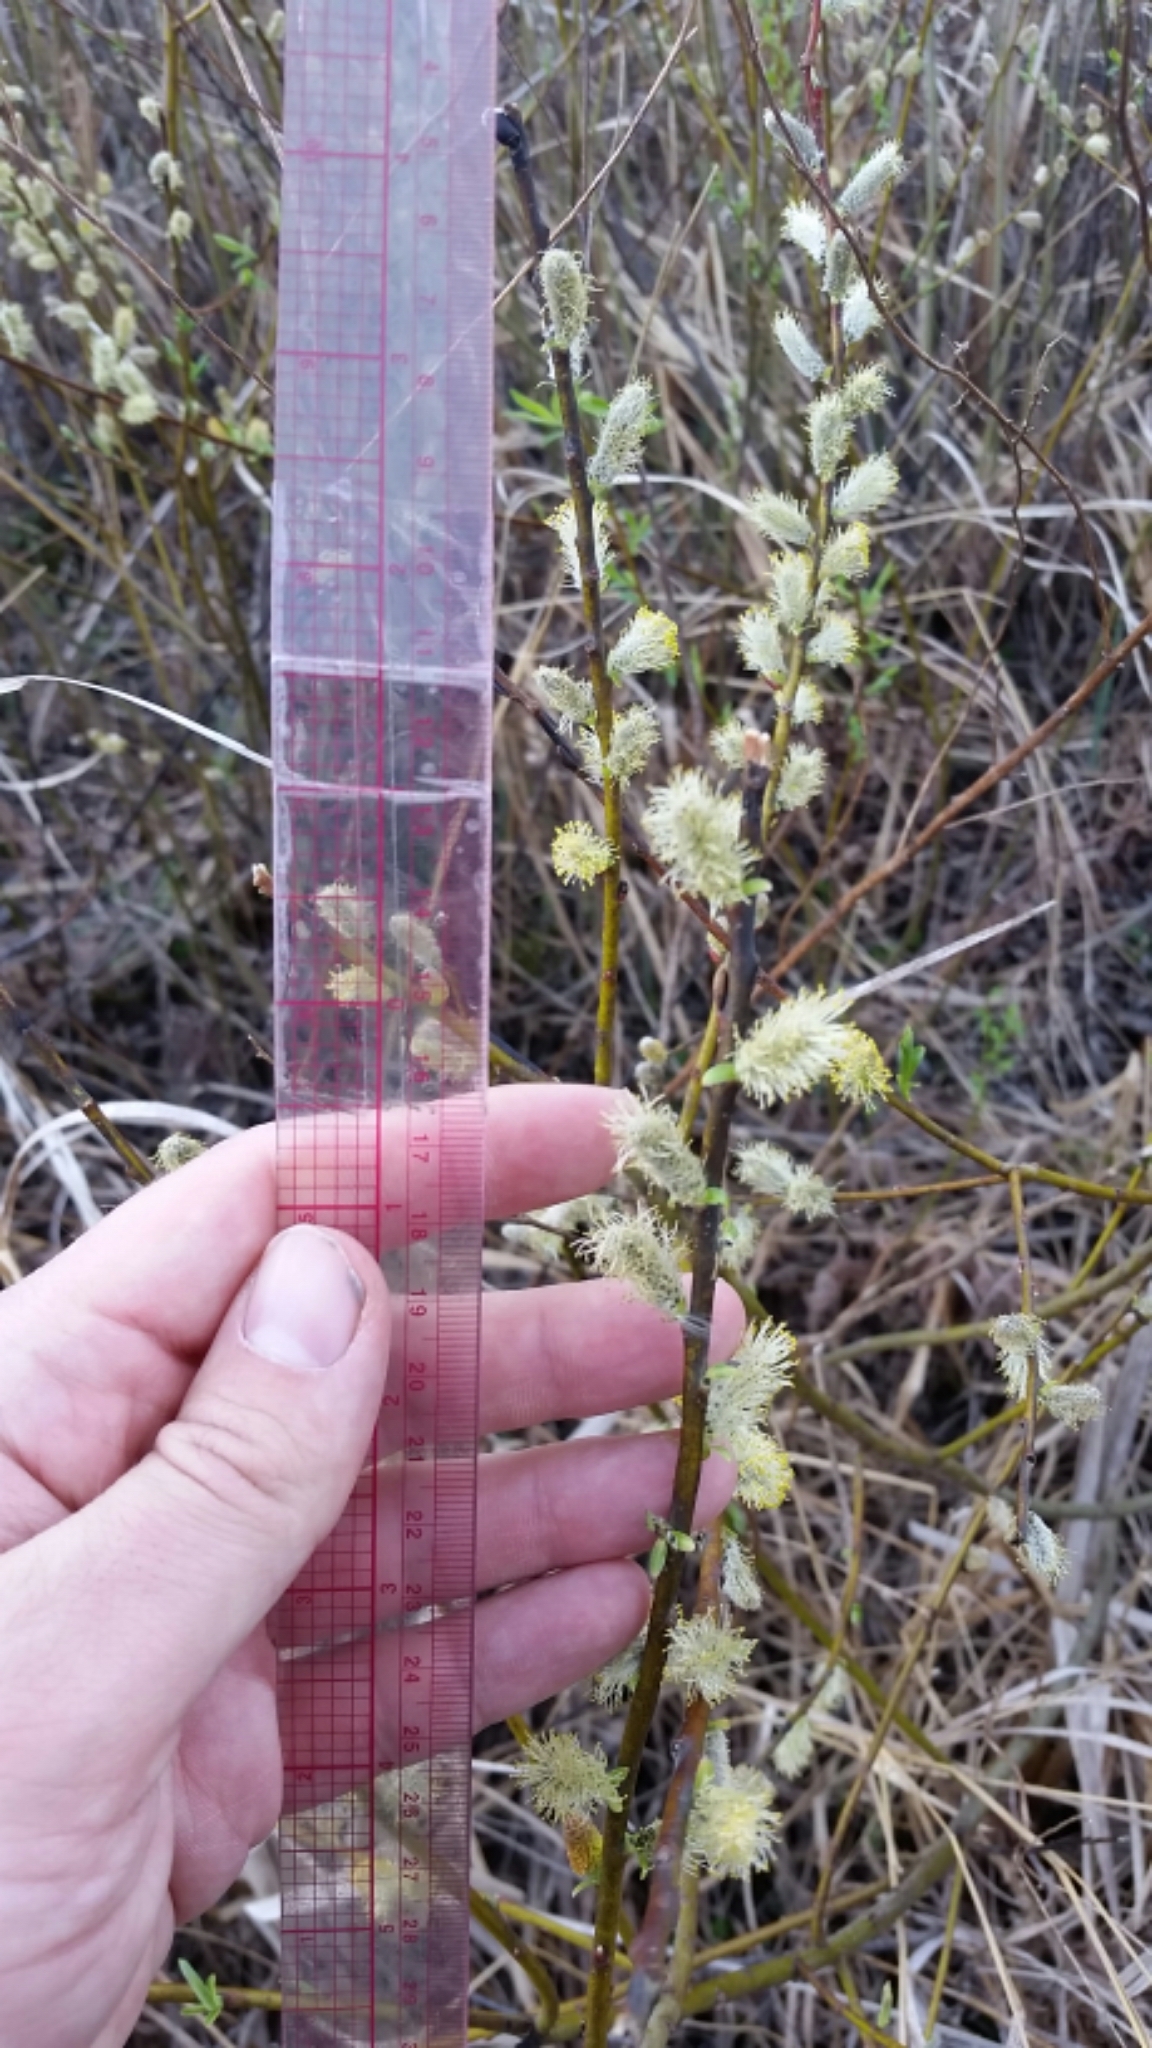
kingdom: Plantae
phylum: Tracheophyta
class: Magnoliopsida
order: Malpighiales
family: Salicaceae
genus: Salix
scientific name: Salix petiolaris
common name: Slender willow
